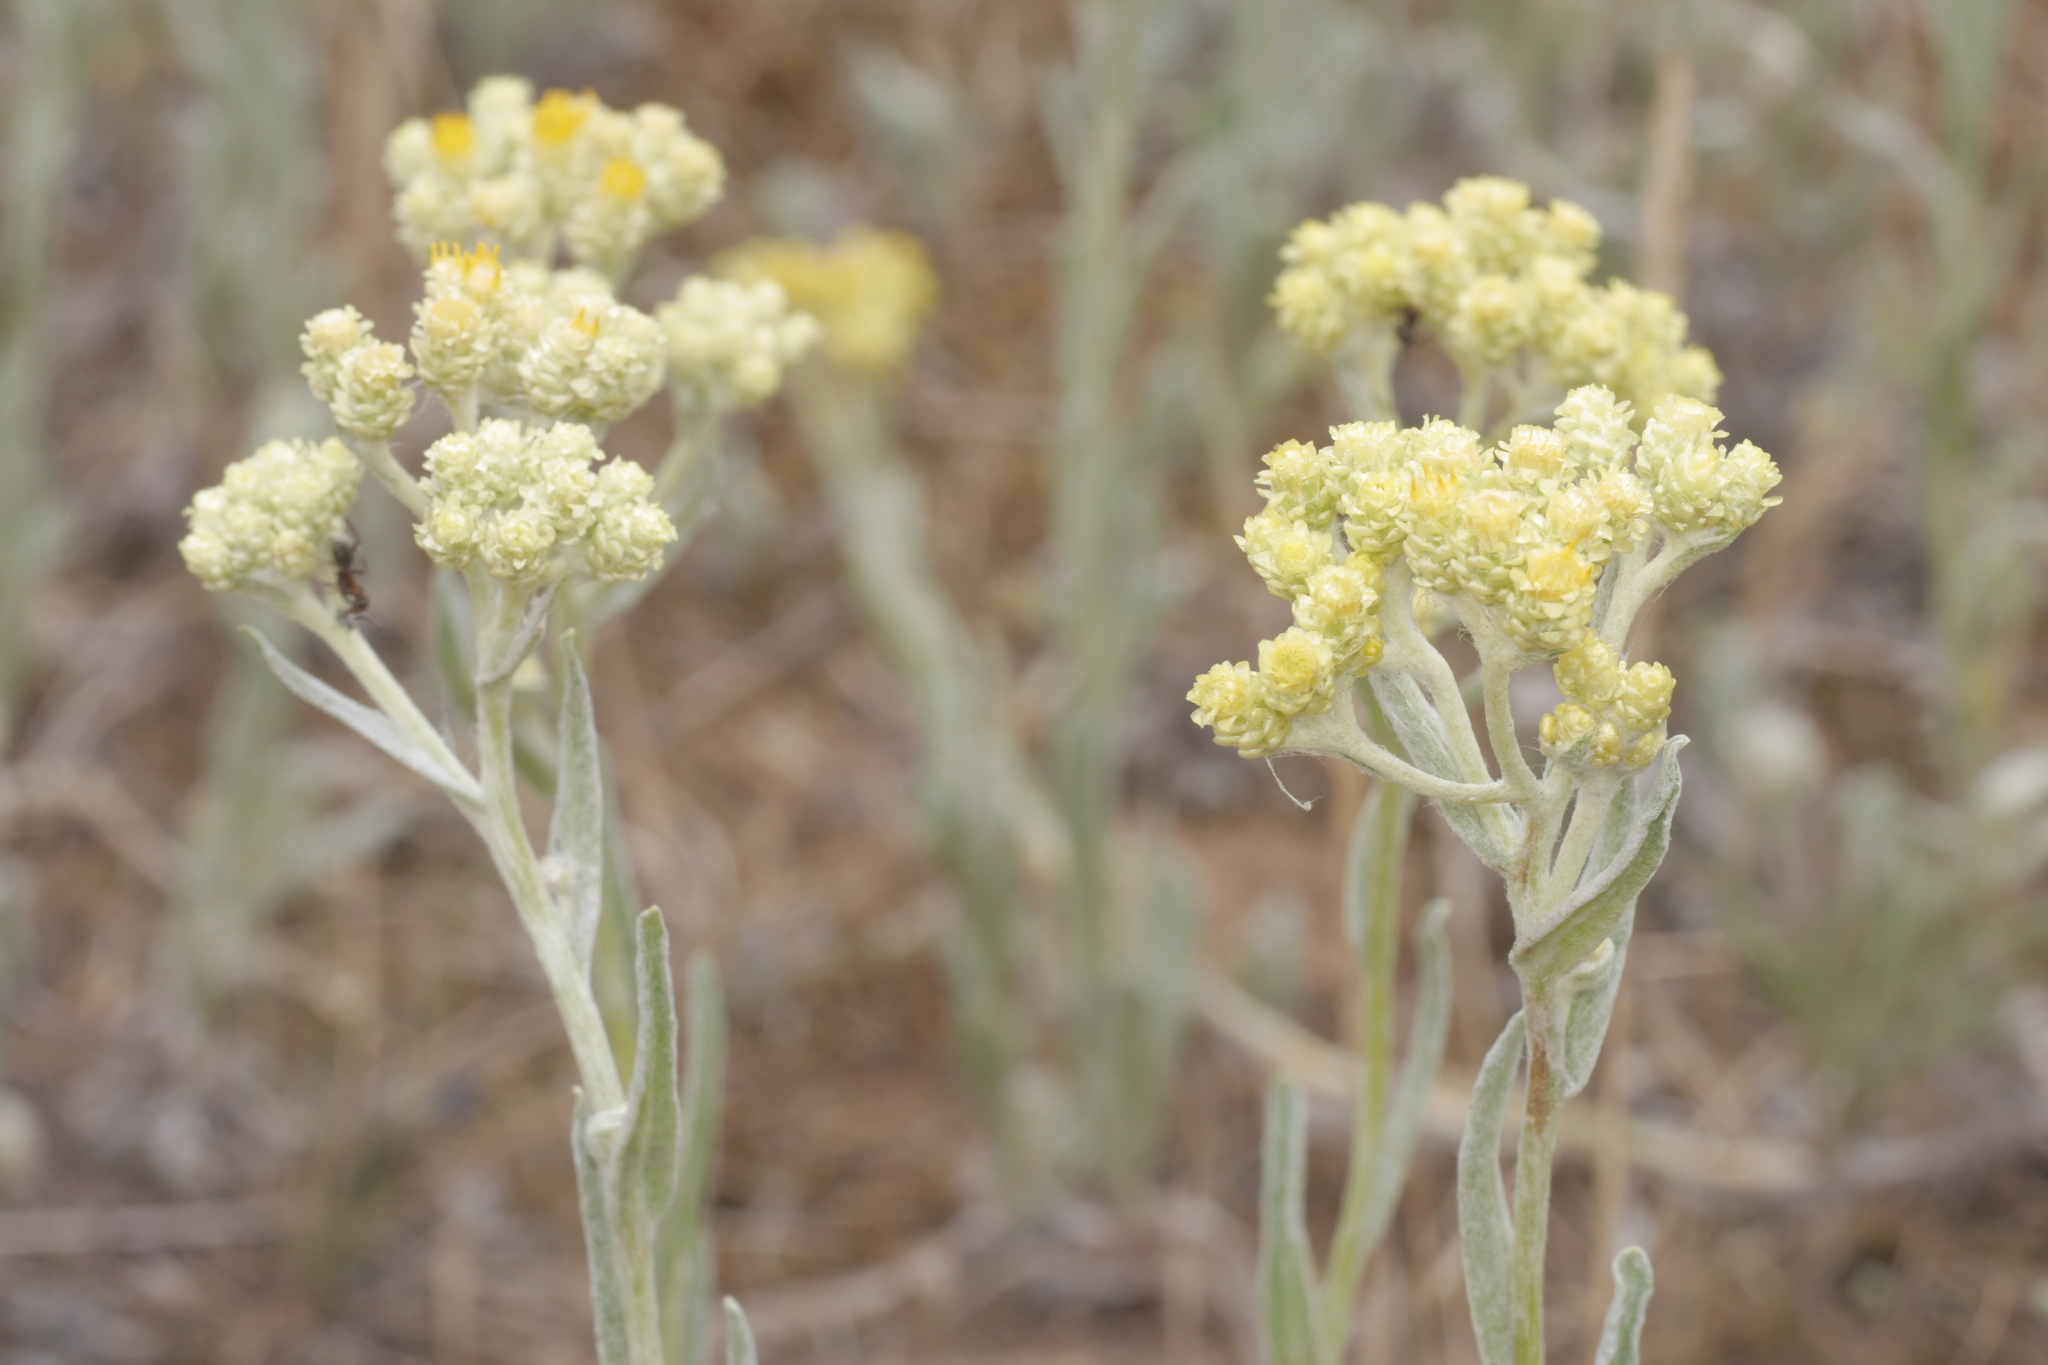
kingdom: Plantae
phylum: Tracheophyta
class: Magnoliopsida
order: Asterales
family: Asteraceae
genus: Helichrysum
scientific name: Helichrysum arenarium
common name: Strawflower
